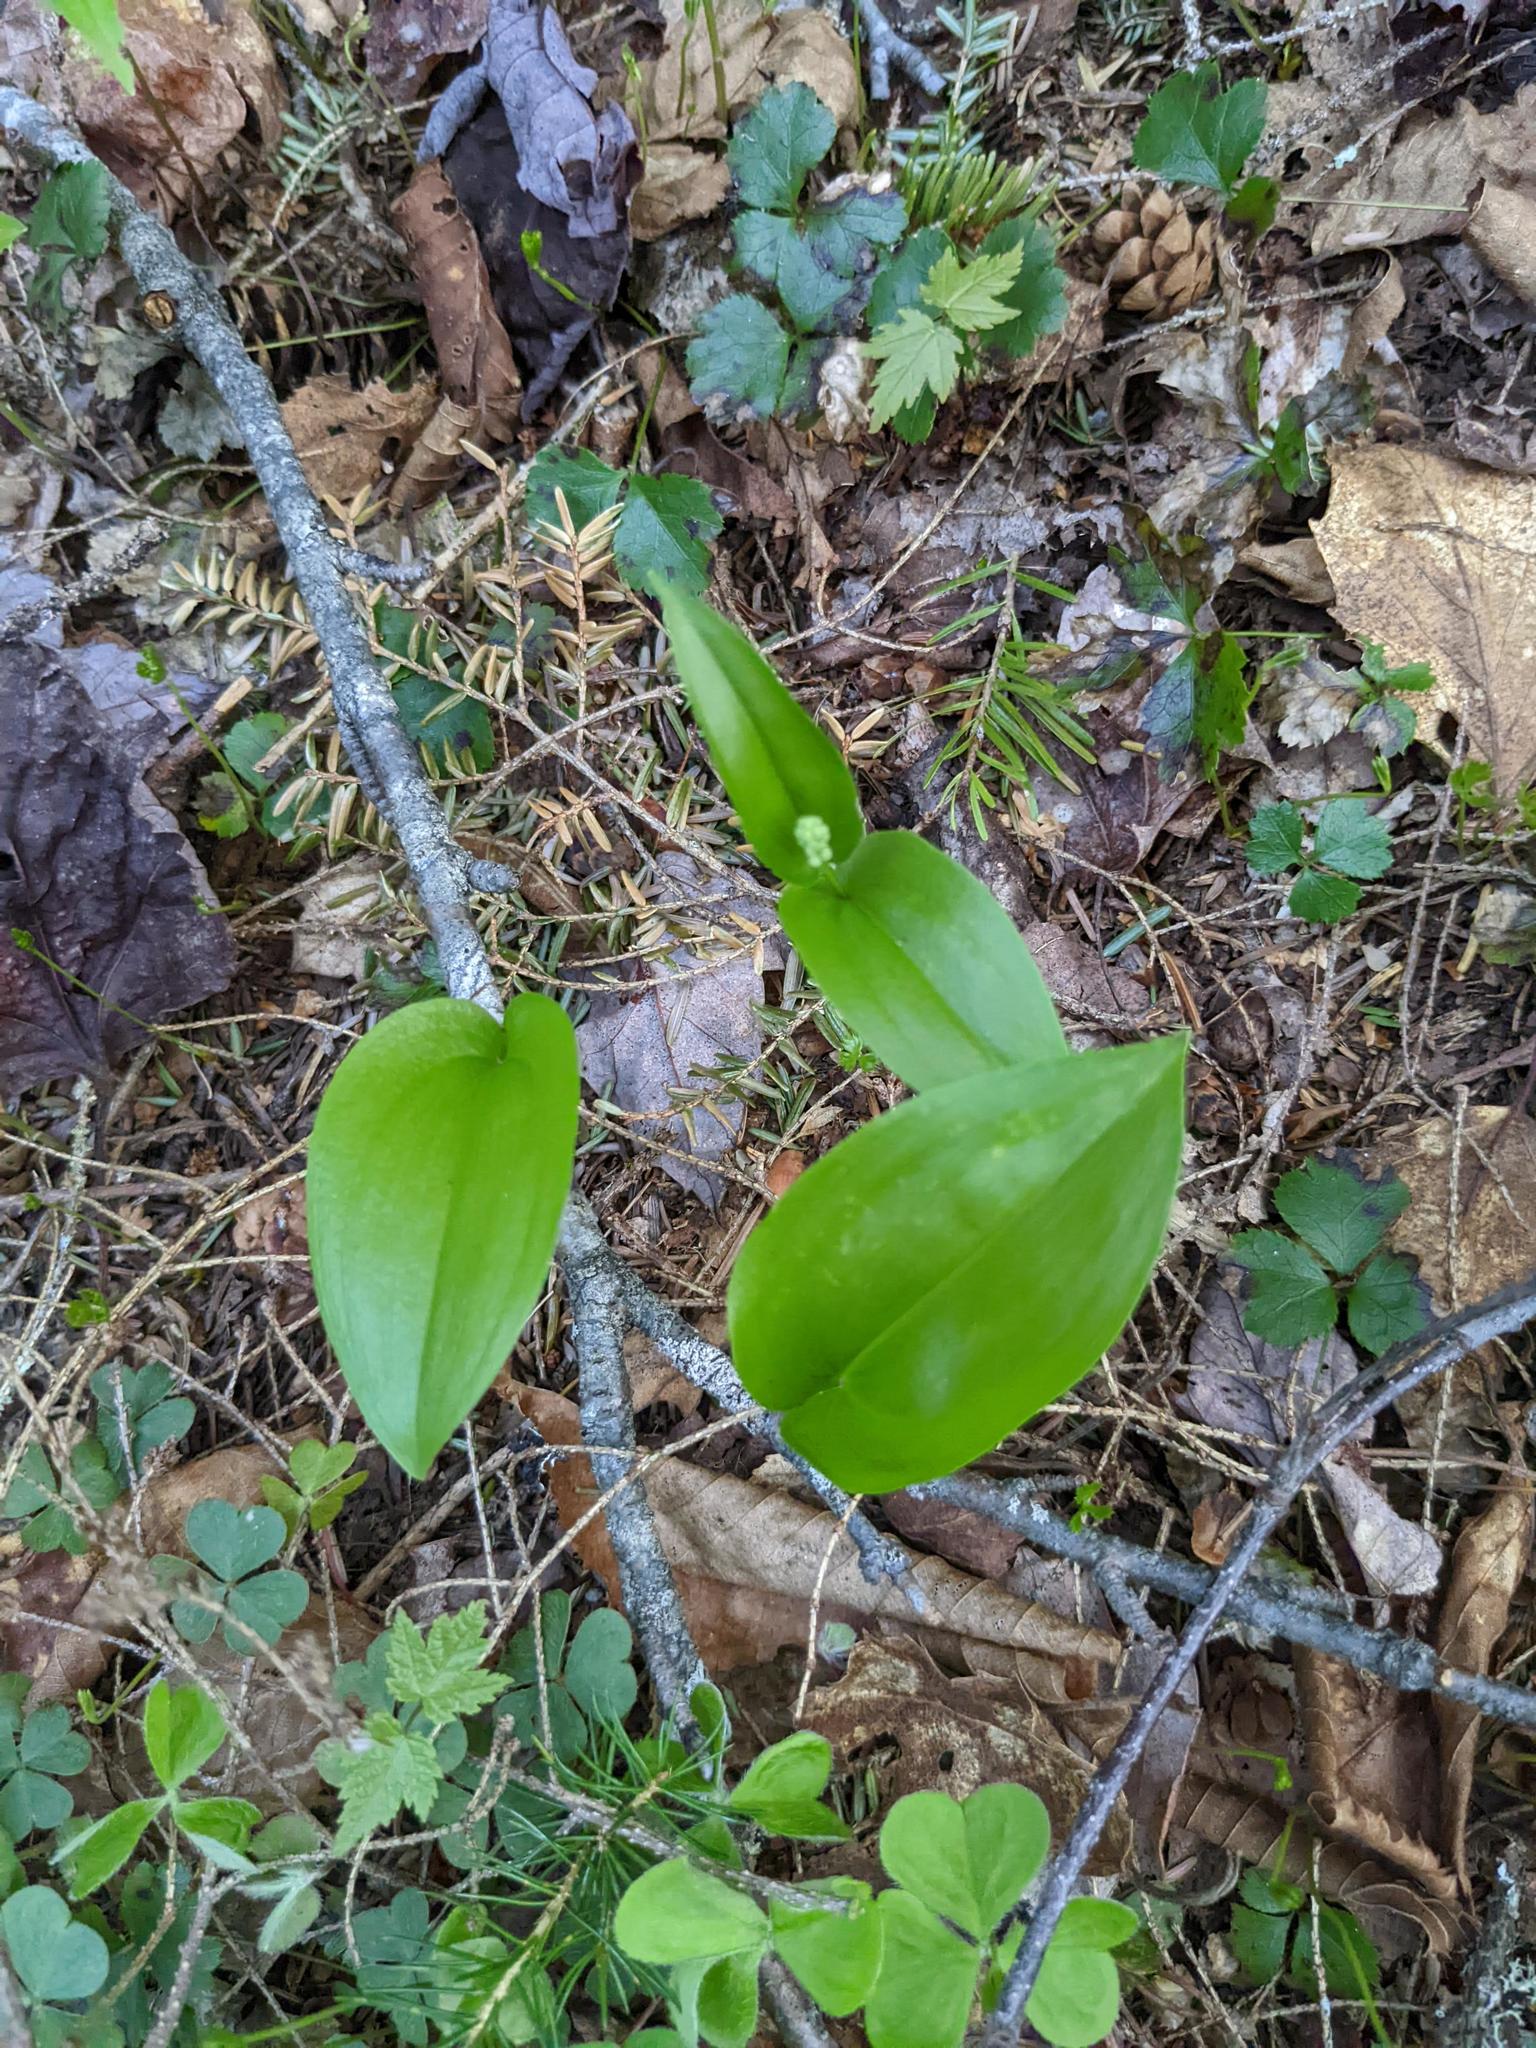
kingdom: Plantae
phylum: Tracheophyta
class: Liliopsida
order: Asparagales
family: Asparagaceae
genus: Maianthemum
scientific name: Maianthemum canadense
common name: False lily-of-the-valley
